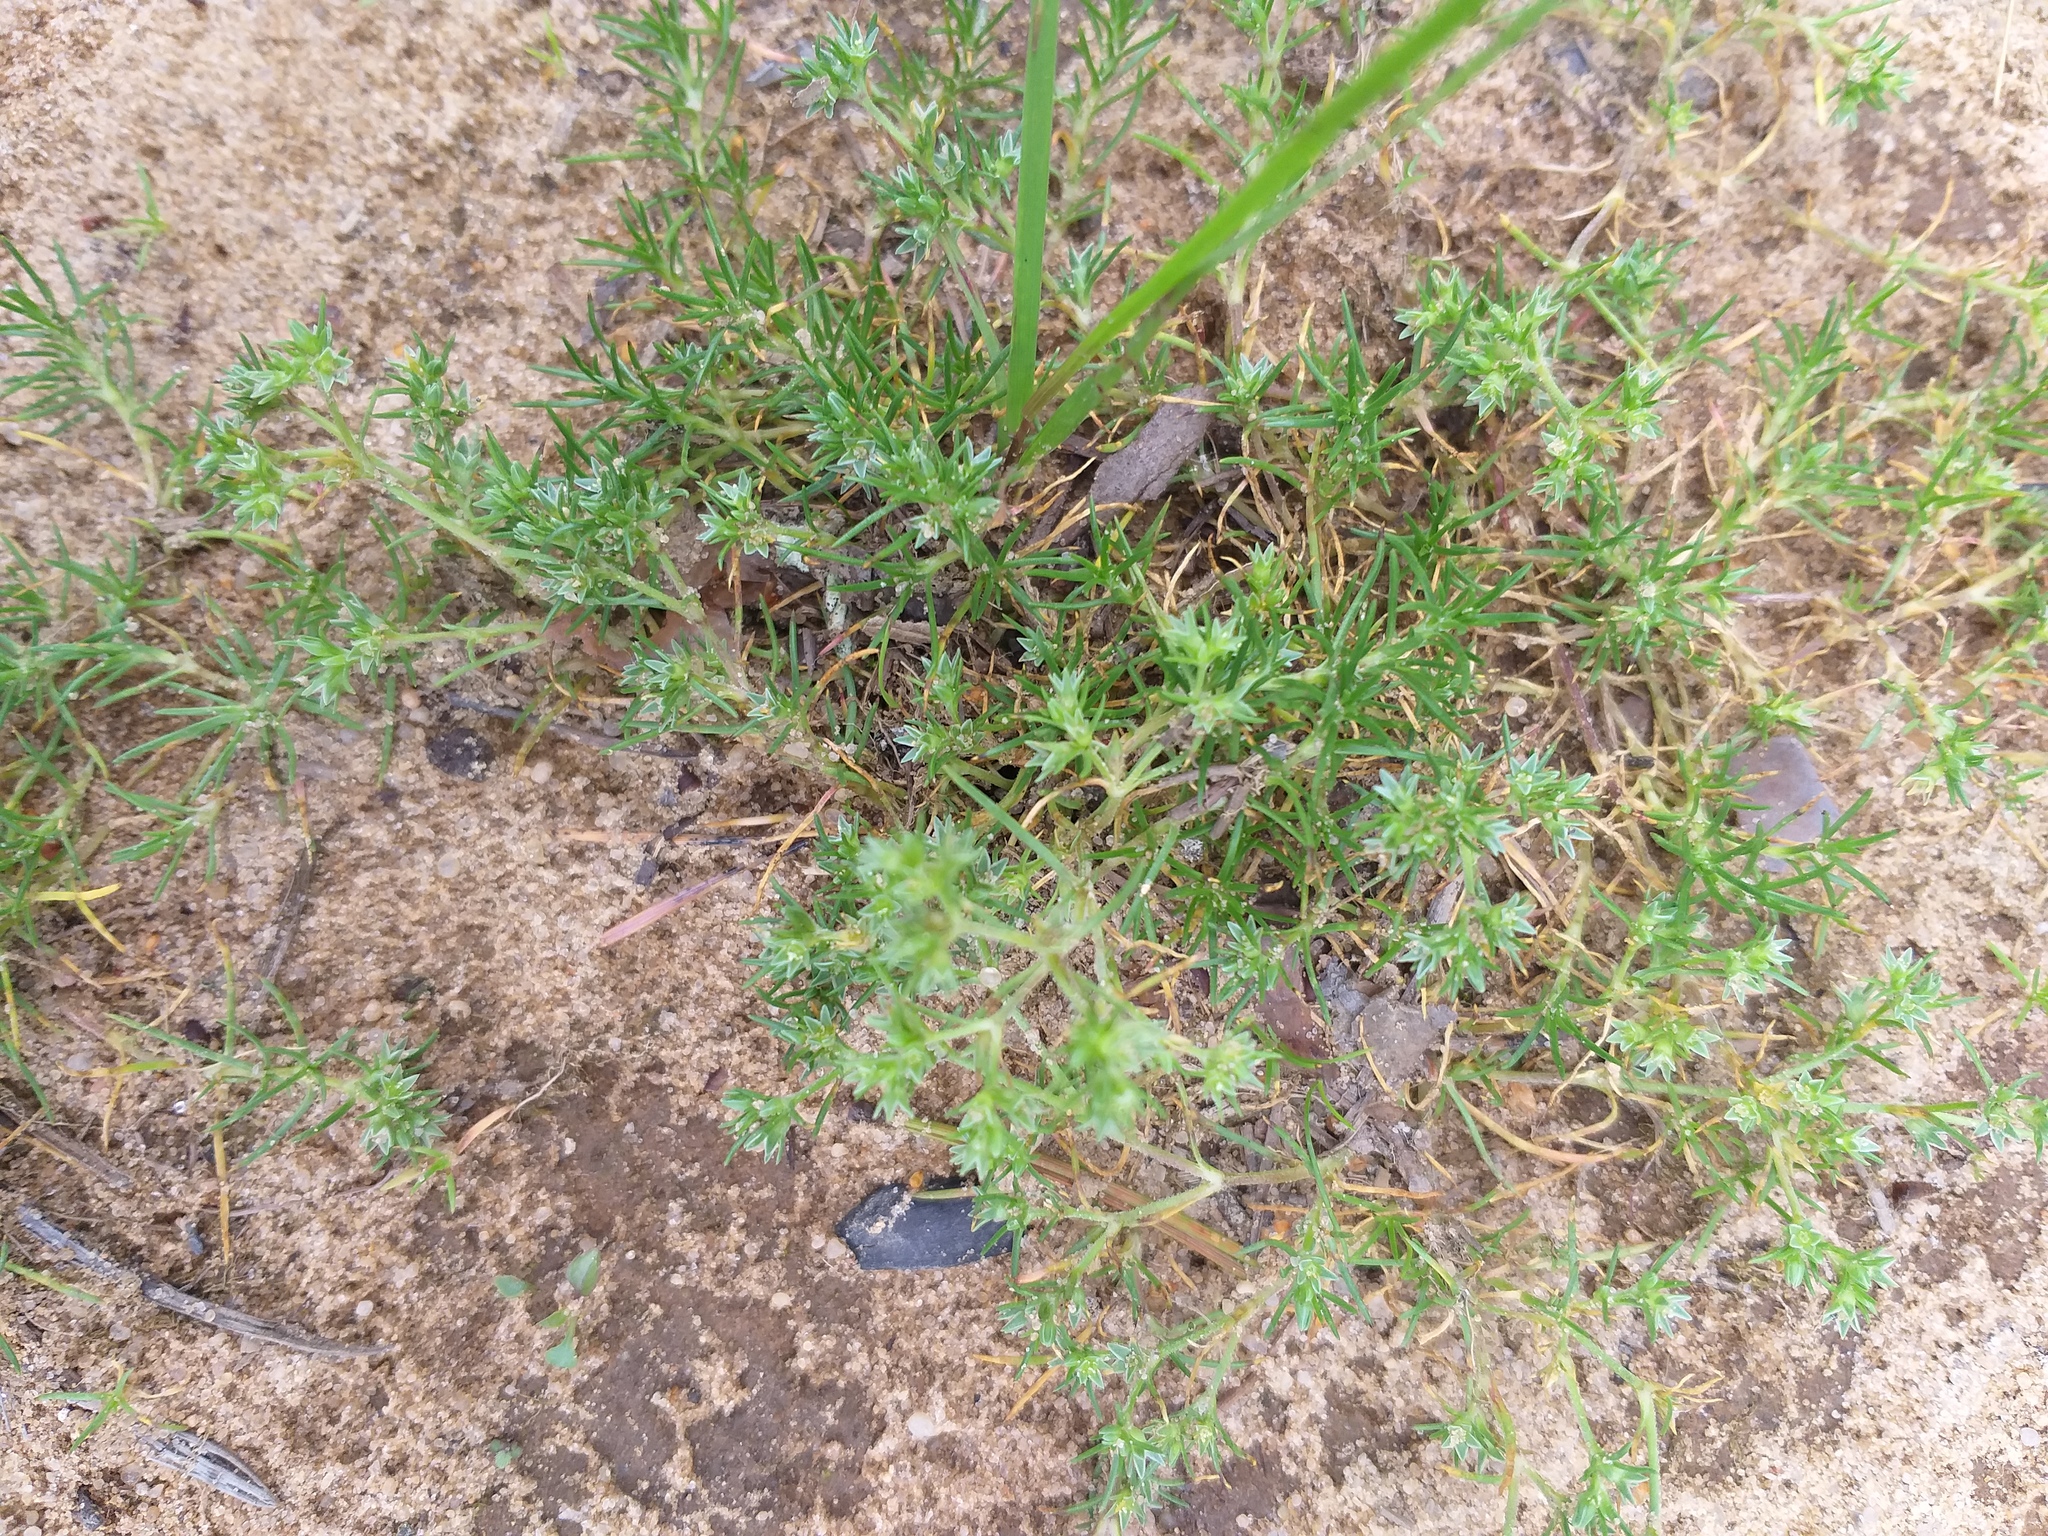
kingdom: Plantae
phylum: Tracheophyta
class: Magnoliopsida
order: Caryophyllales
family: Caryophyllaceae
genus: Scleranthus
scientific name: Scleranthus annuus
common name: Annual knawel
